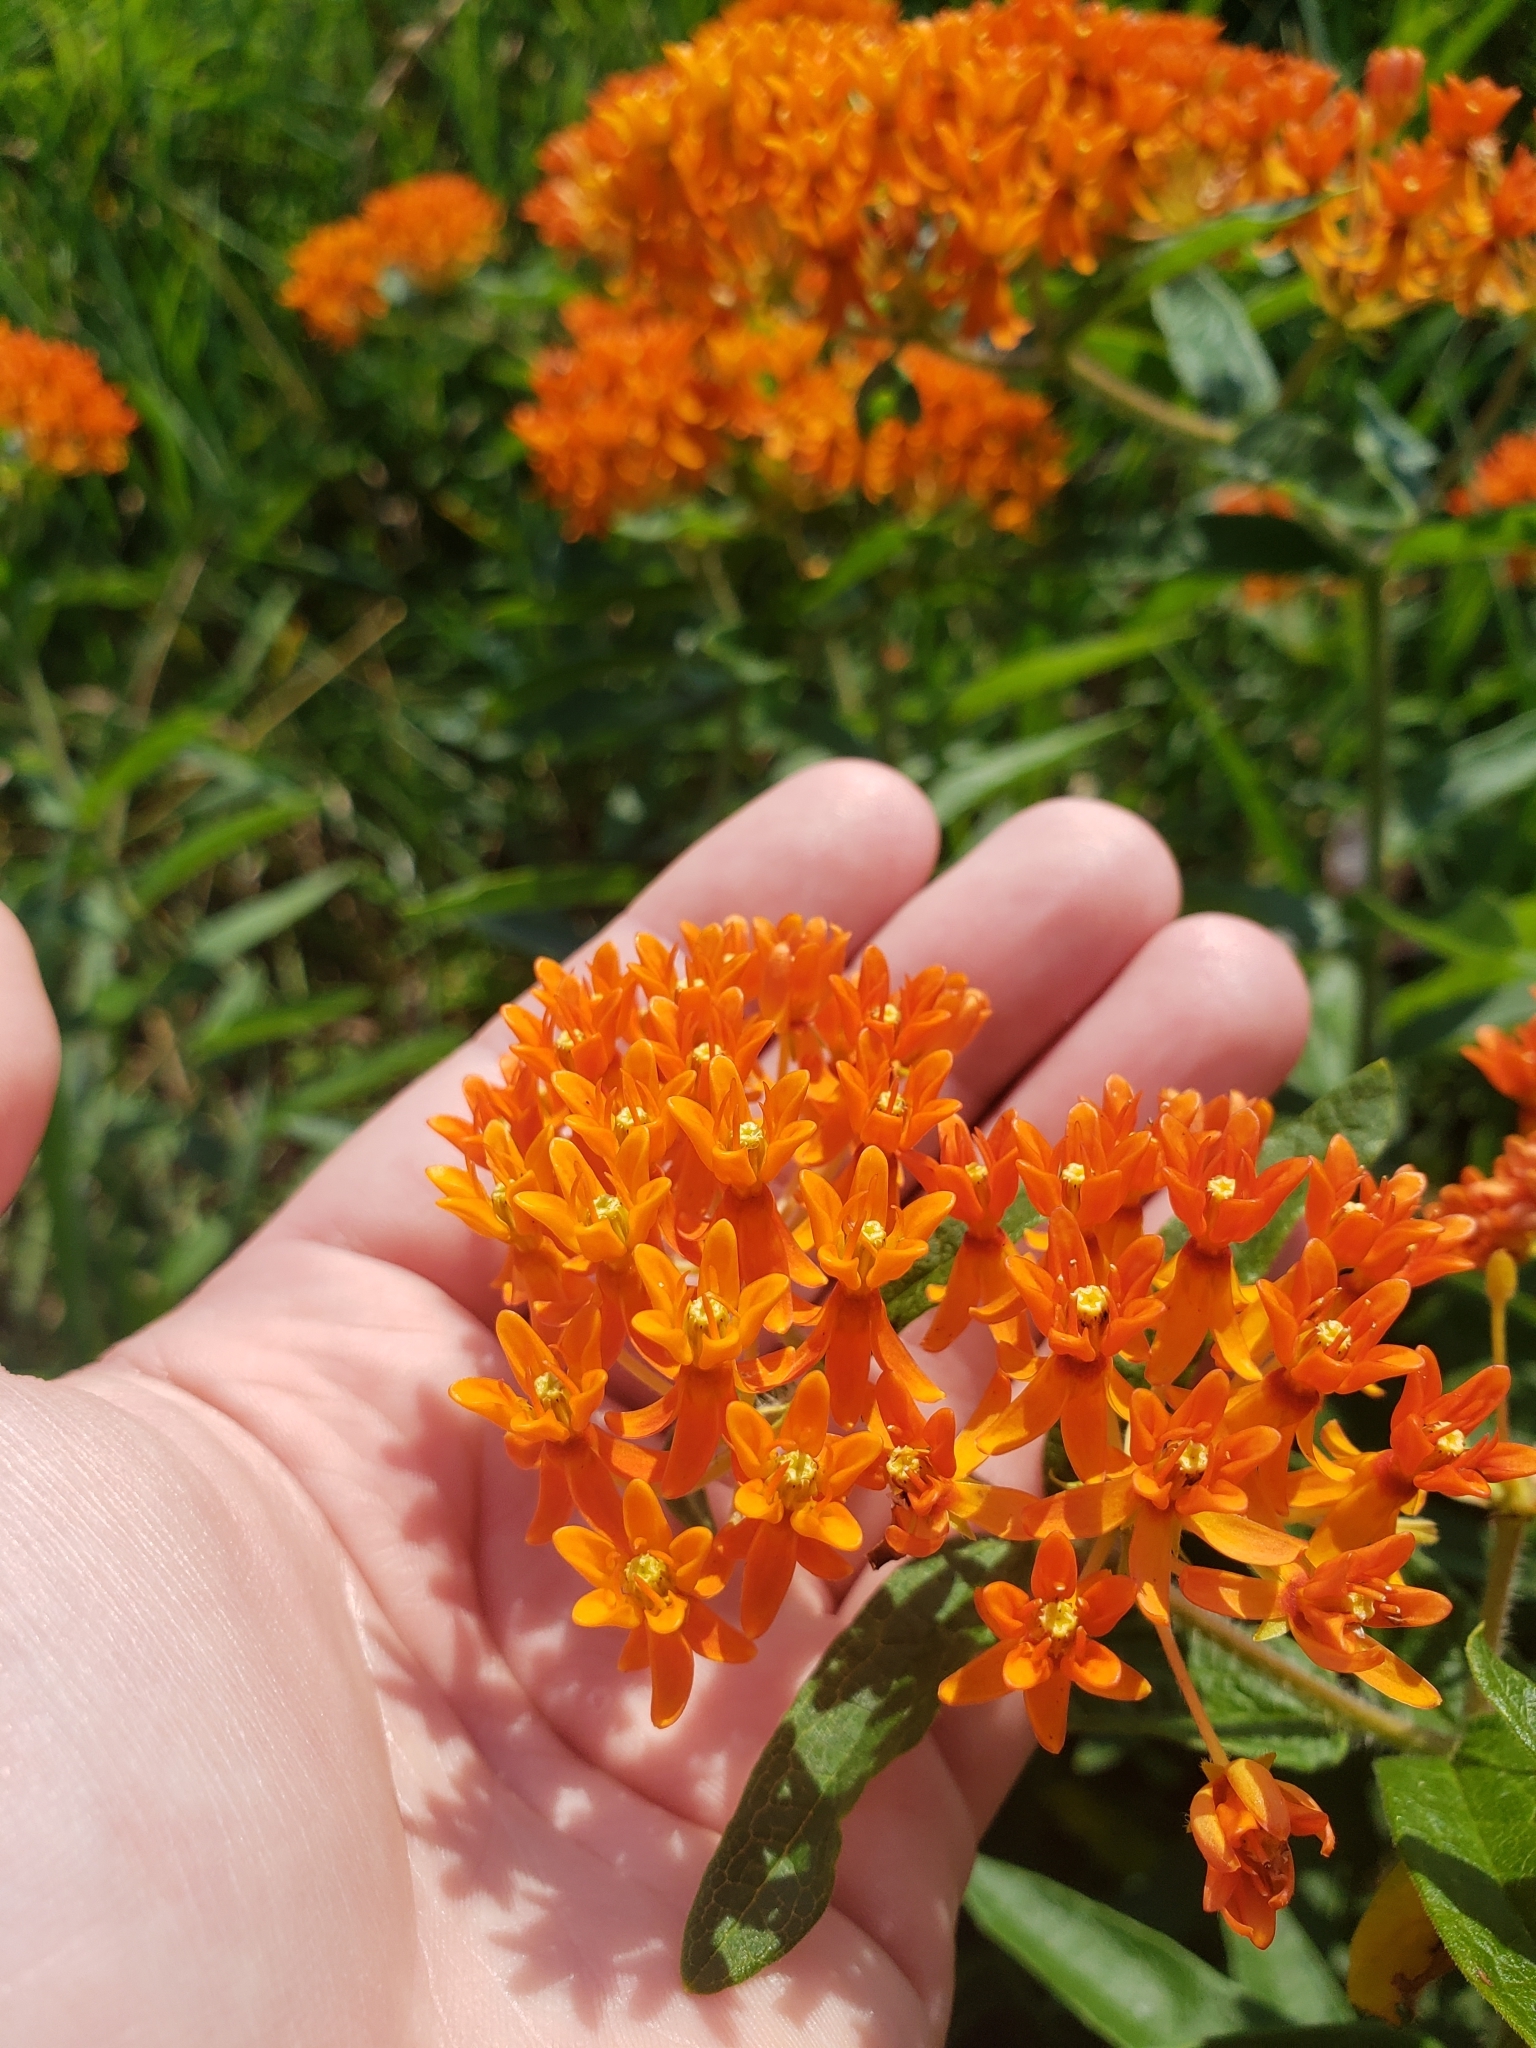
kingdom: Plantae
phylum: Tracheophyta
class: Magnoliopsida
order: Gentianales
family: Apocynaceae
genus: Asclepias
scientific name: Asclepias tuberosa
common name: Butterfly milkweed
